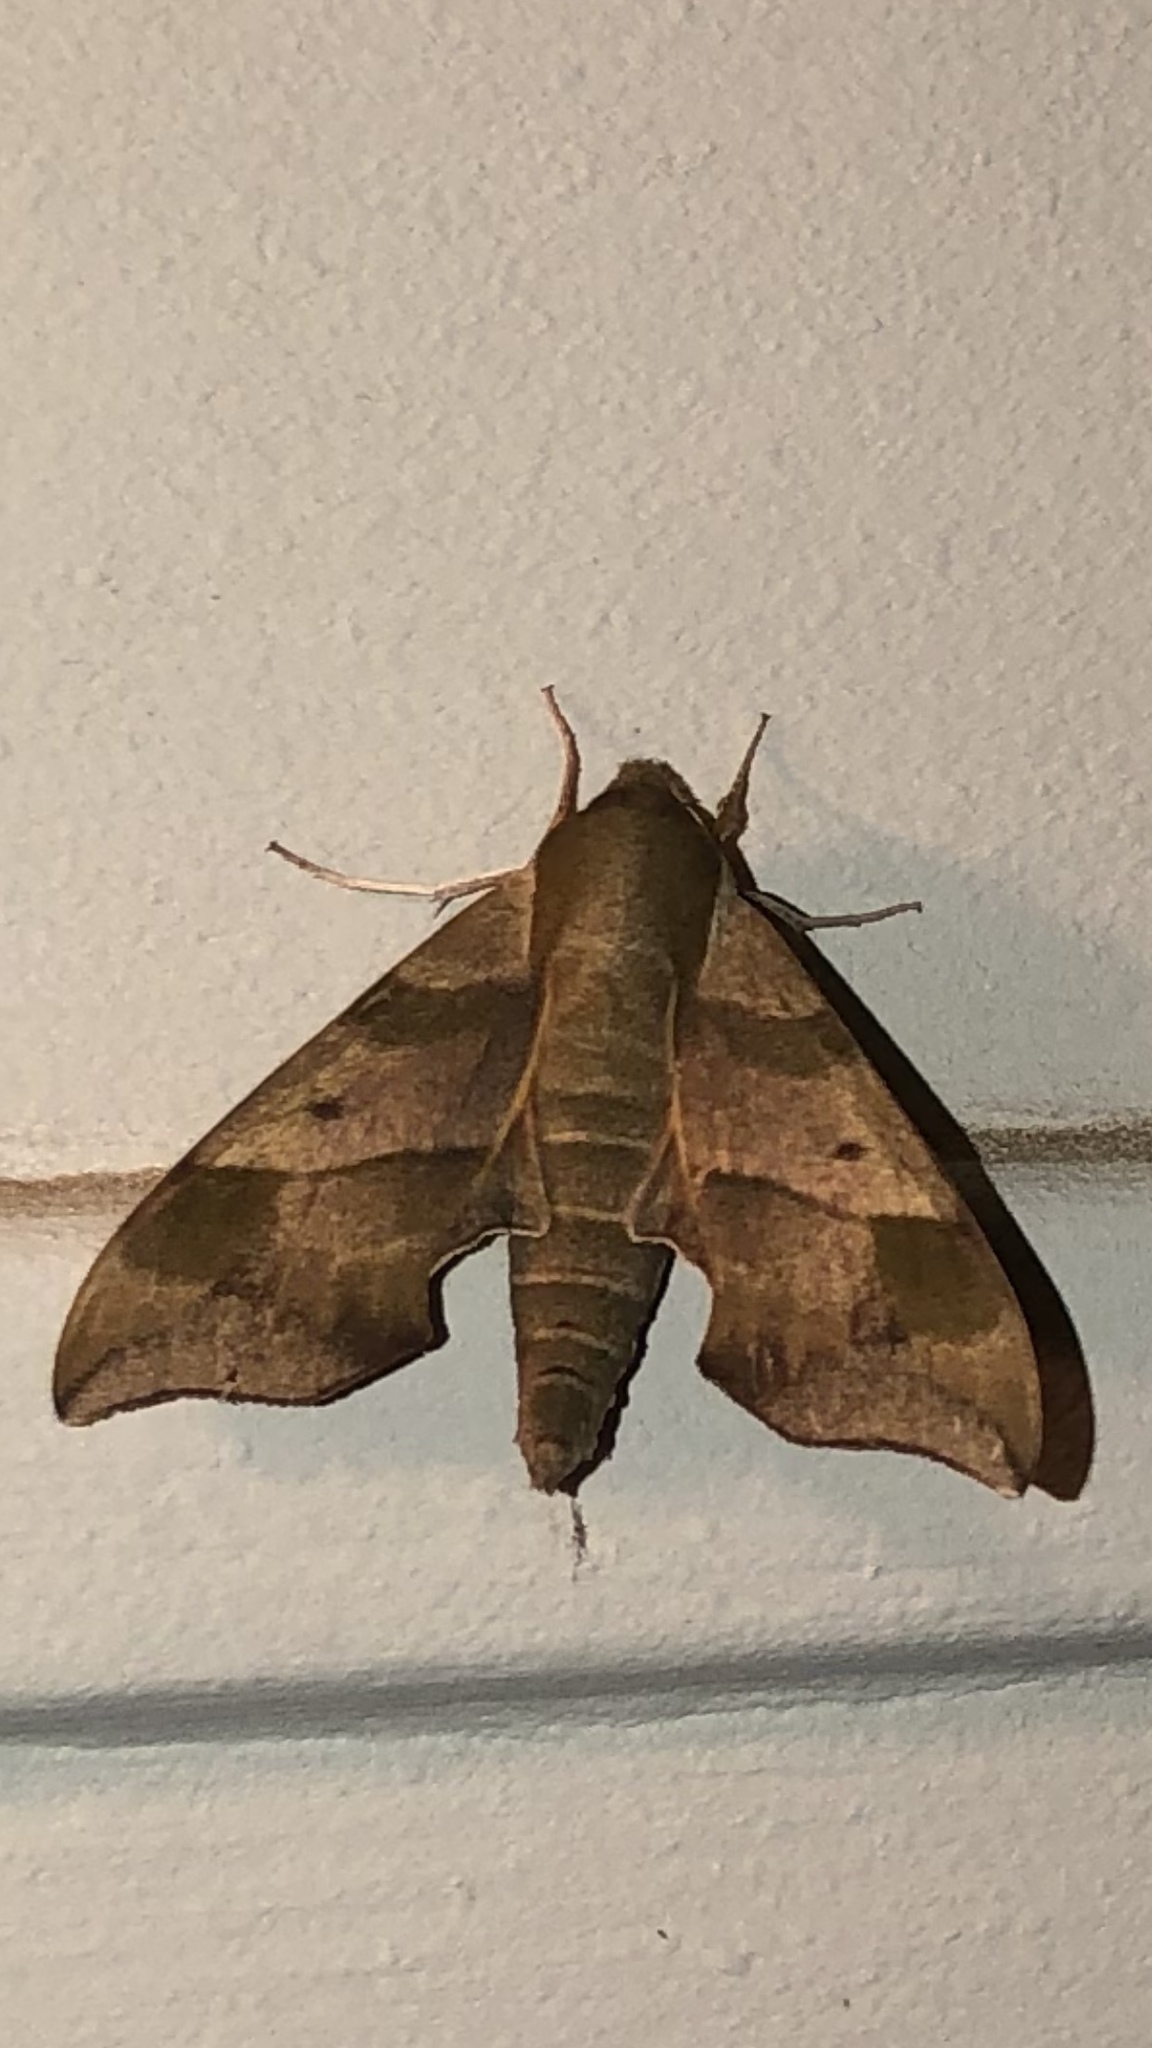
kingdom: Animalia
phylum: Arthropoda
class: Insecta
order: Lepidoptera
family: Sphingidae
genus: Darapsa
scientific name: Darapsa myron
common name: Hog sphinx
